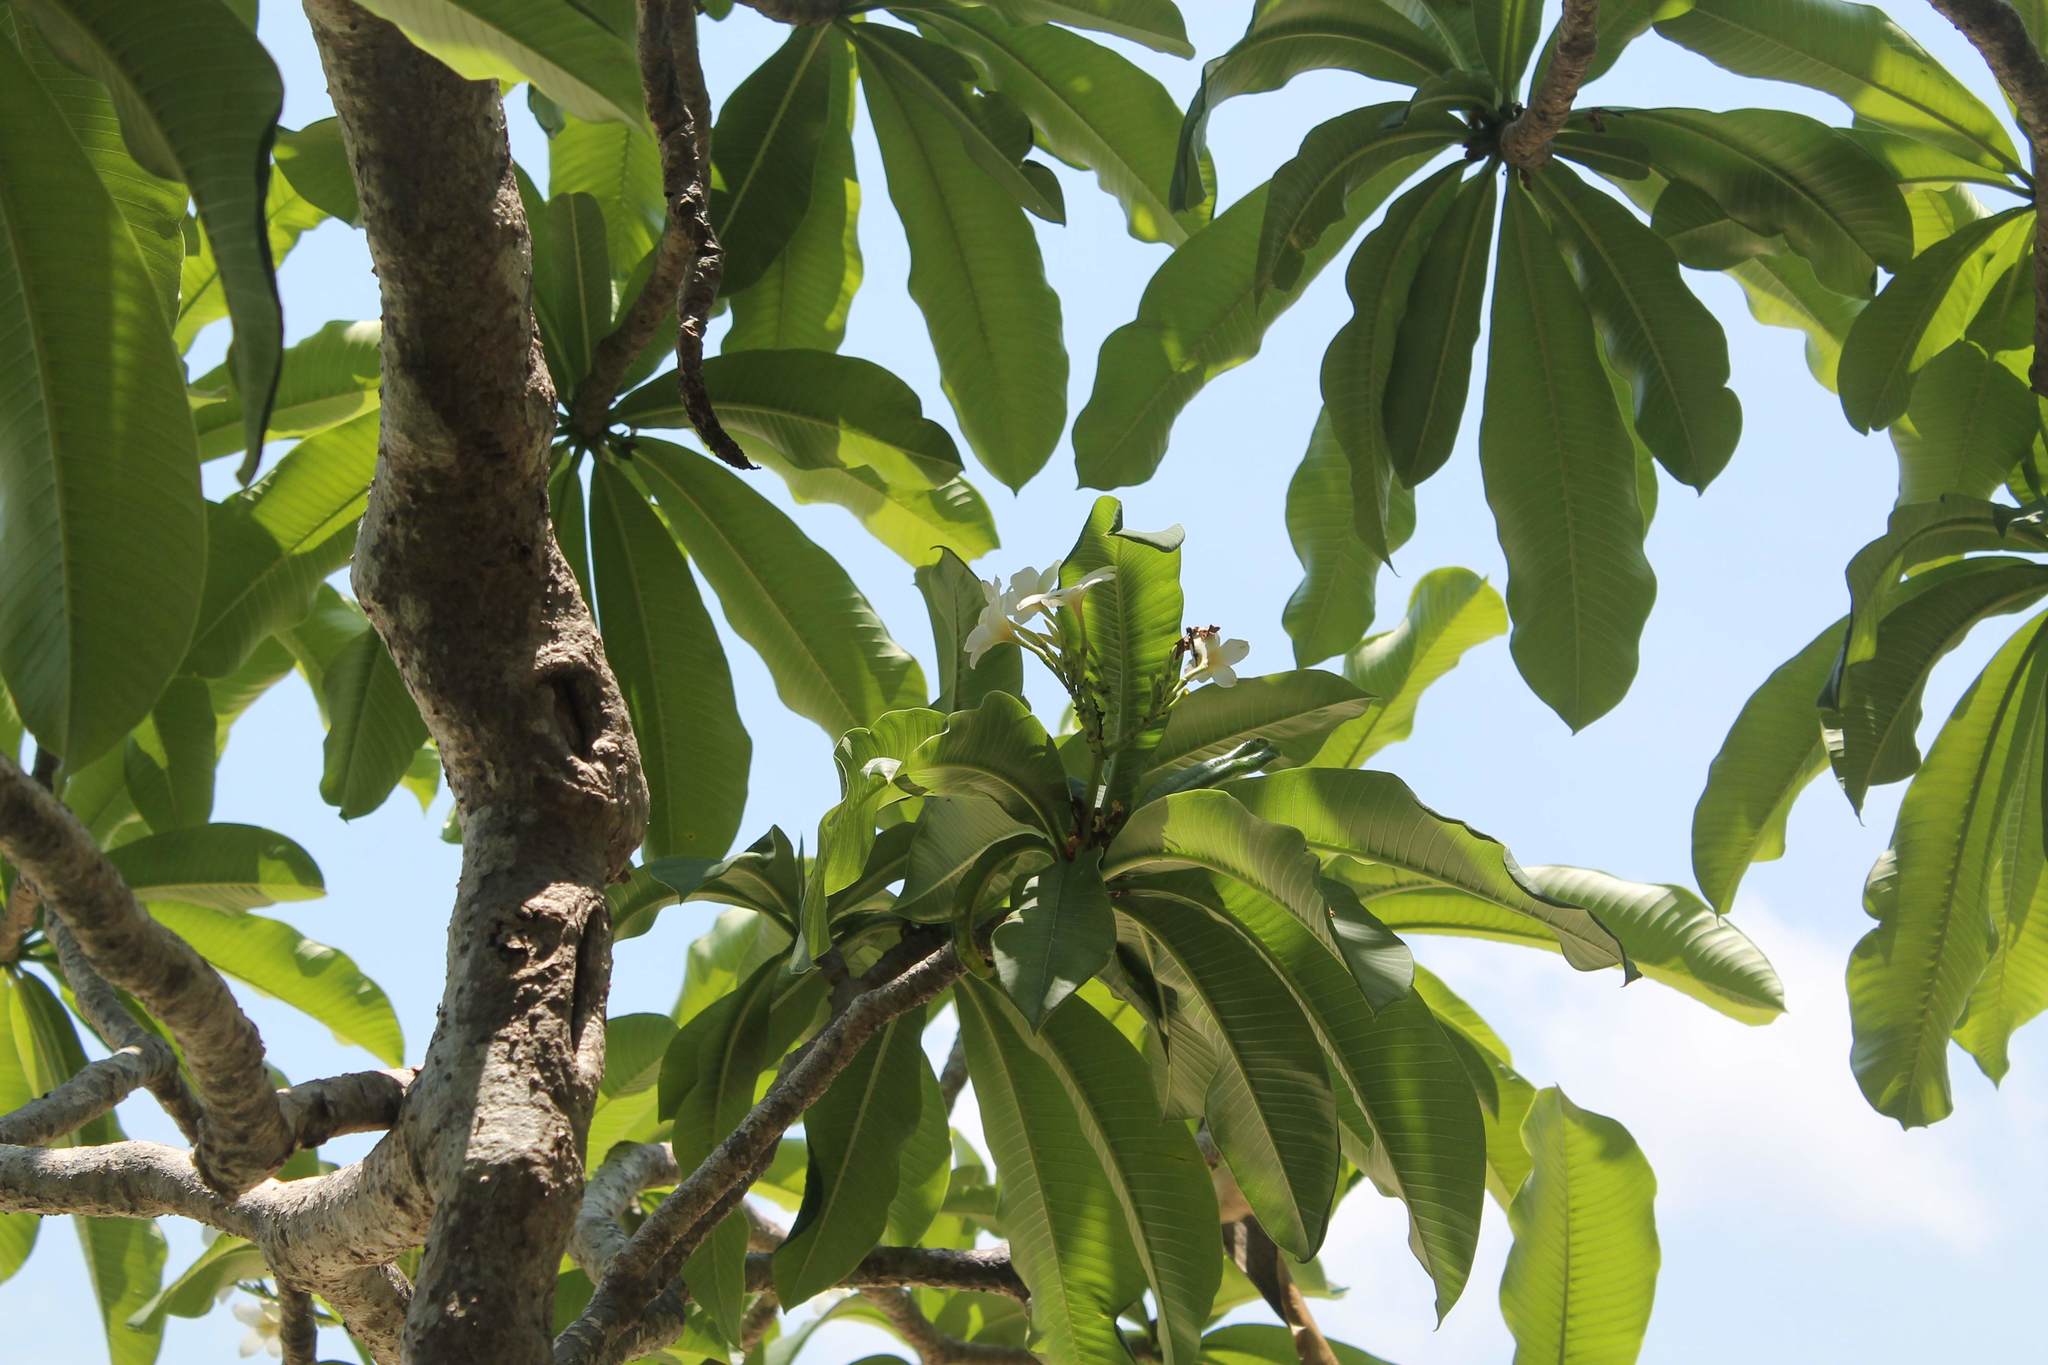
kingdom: Plantae
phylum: Tracheophyta
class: Magnoliopsida
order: Gentianales
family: Apocynaceae
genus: Plumeria
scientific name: Plumeria rubra
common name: Pagoda-tree
